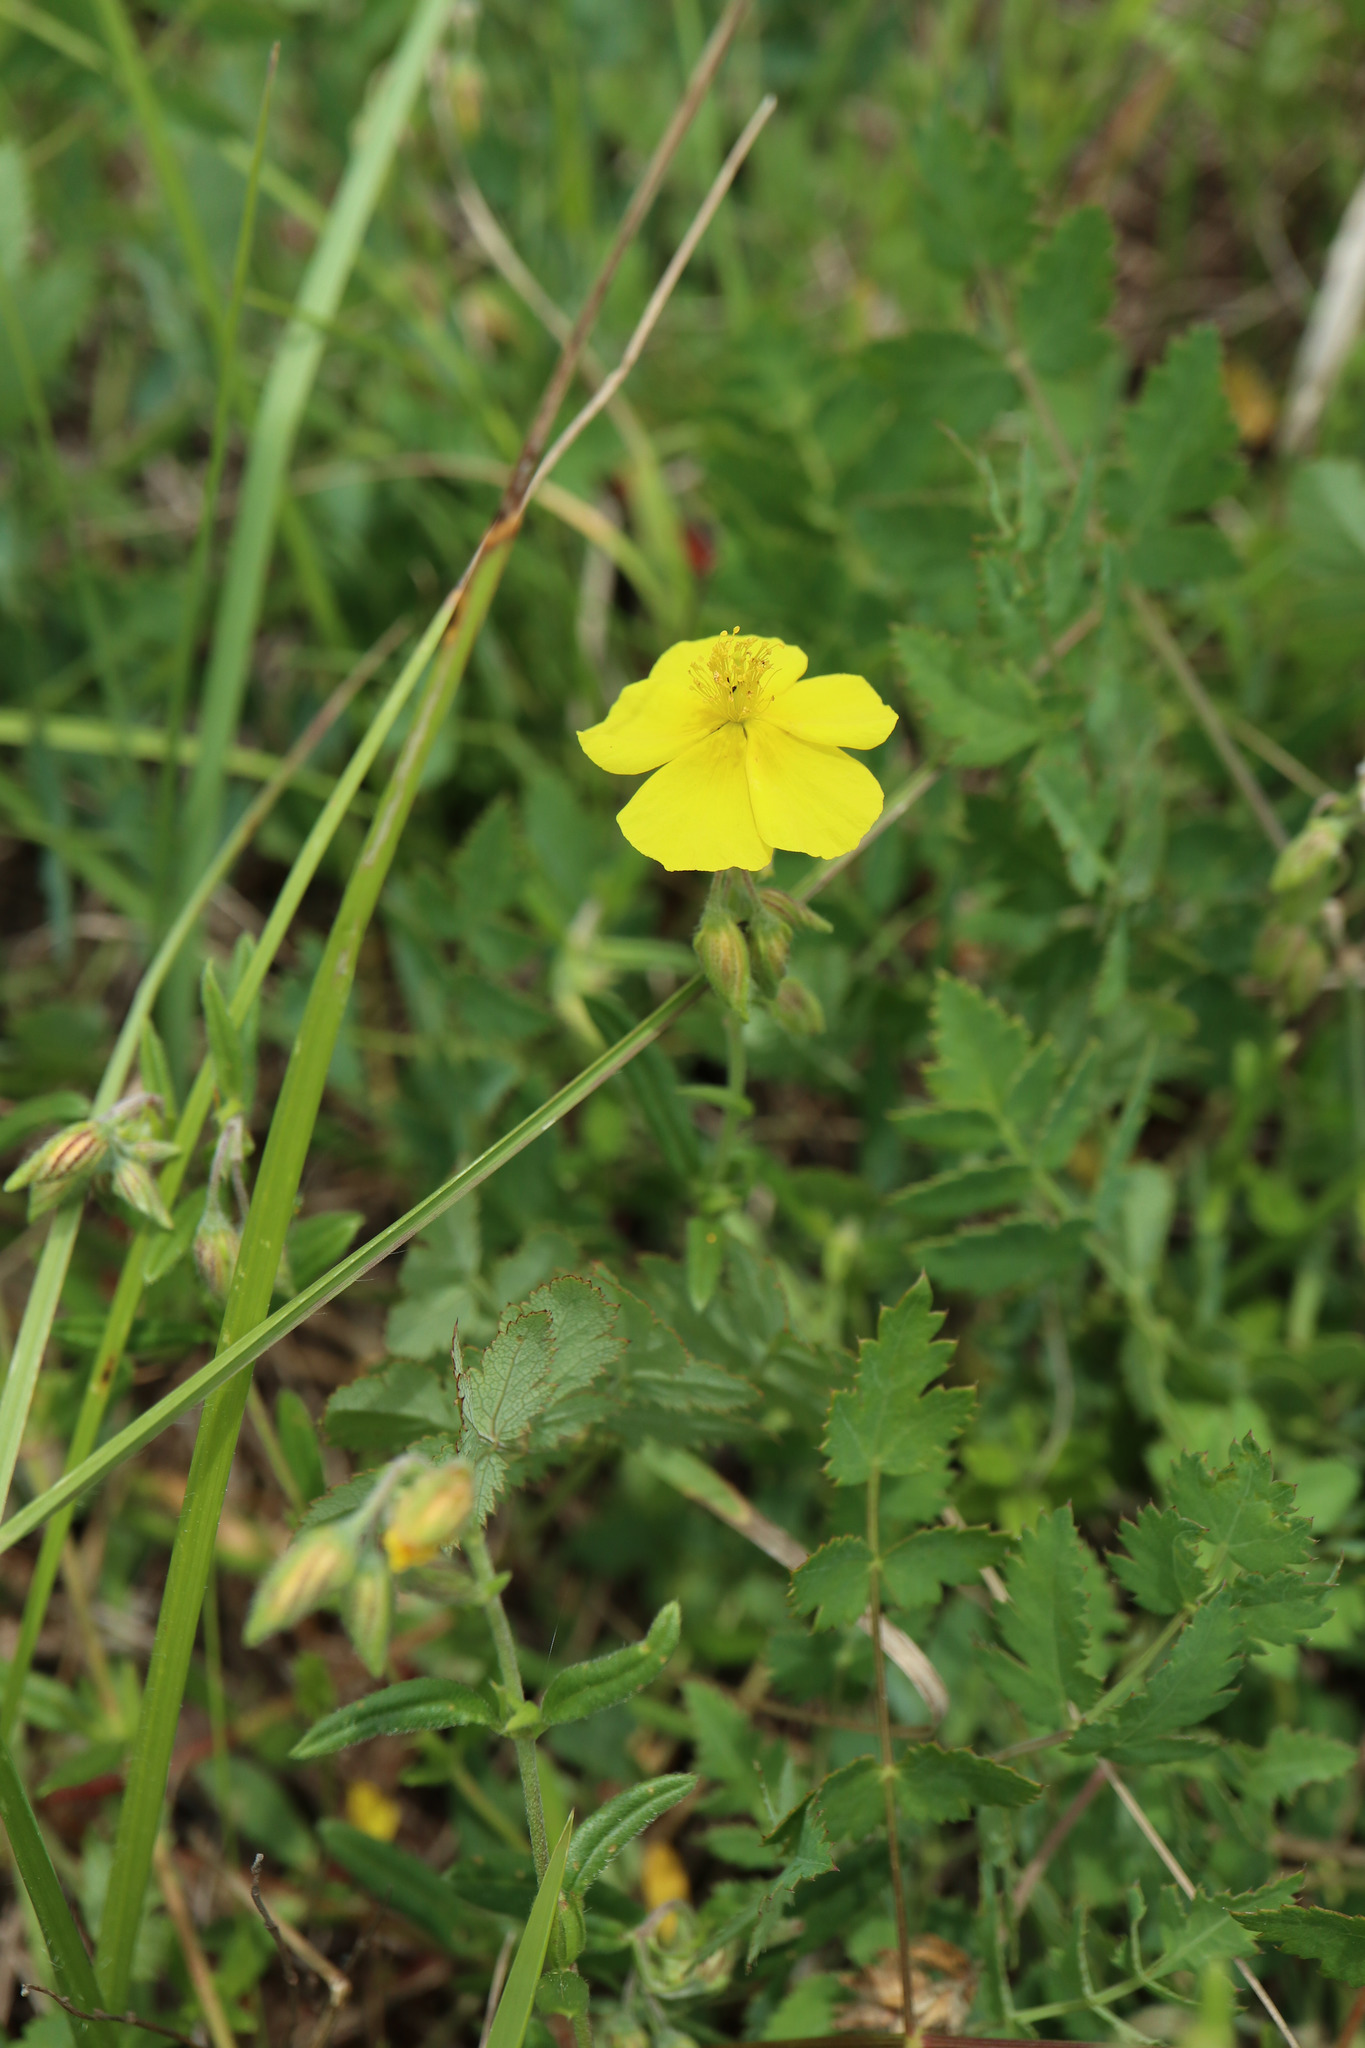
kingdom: Plantae
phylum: Tracheophyta
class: Magnoliopsida
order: Malvales
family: Cistaceae
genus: Helianthemum
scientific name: Helianthemum nummularium
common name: Common rock-rose
